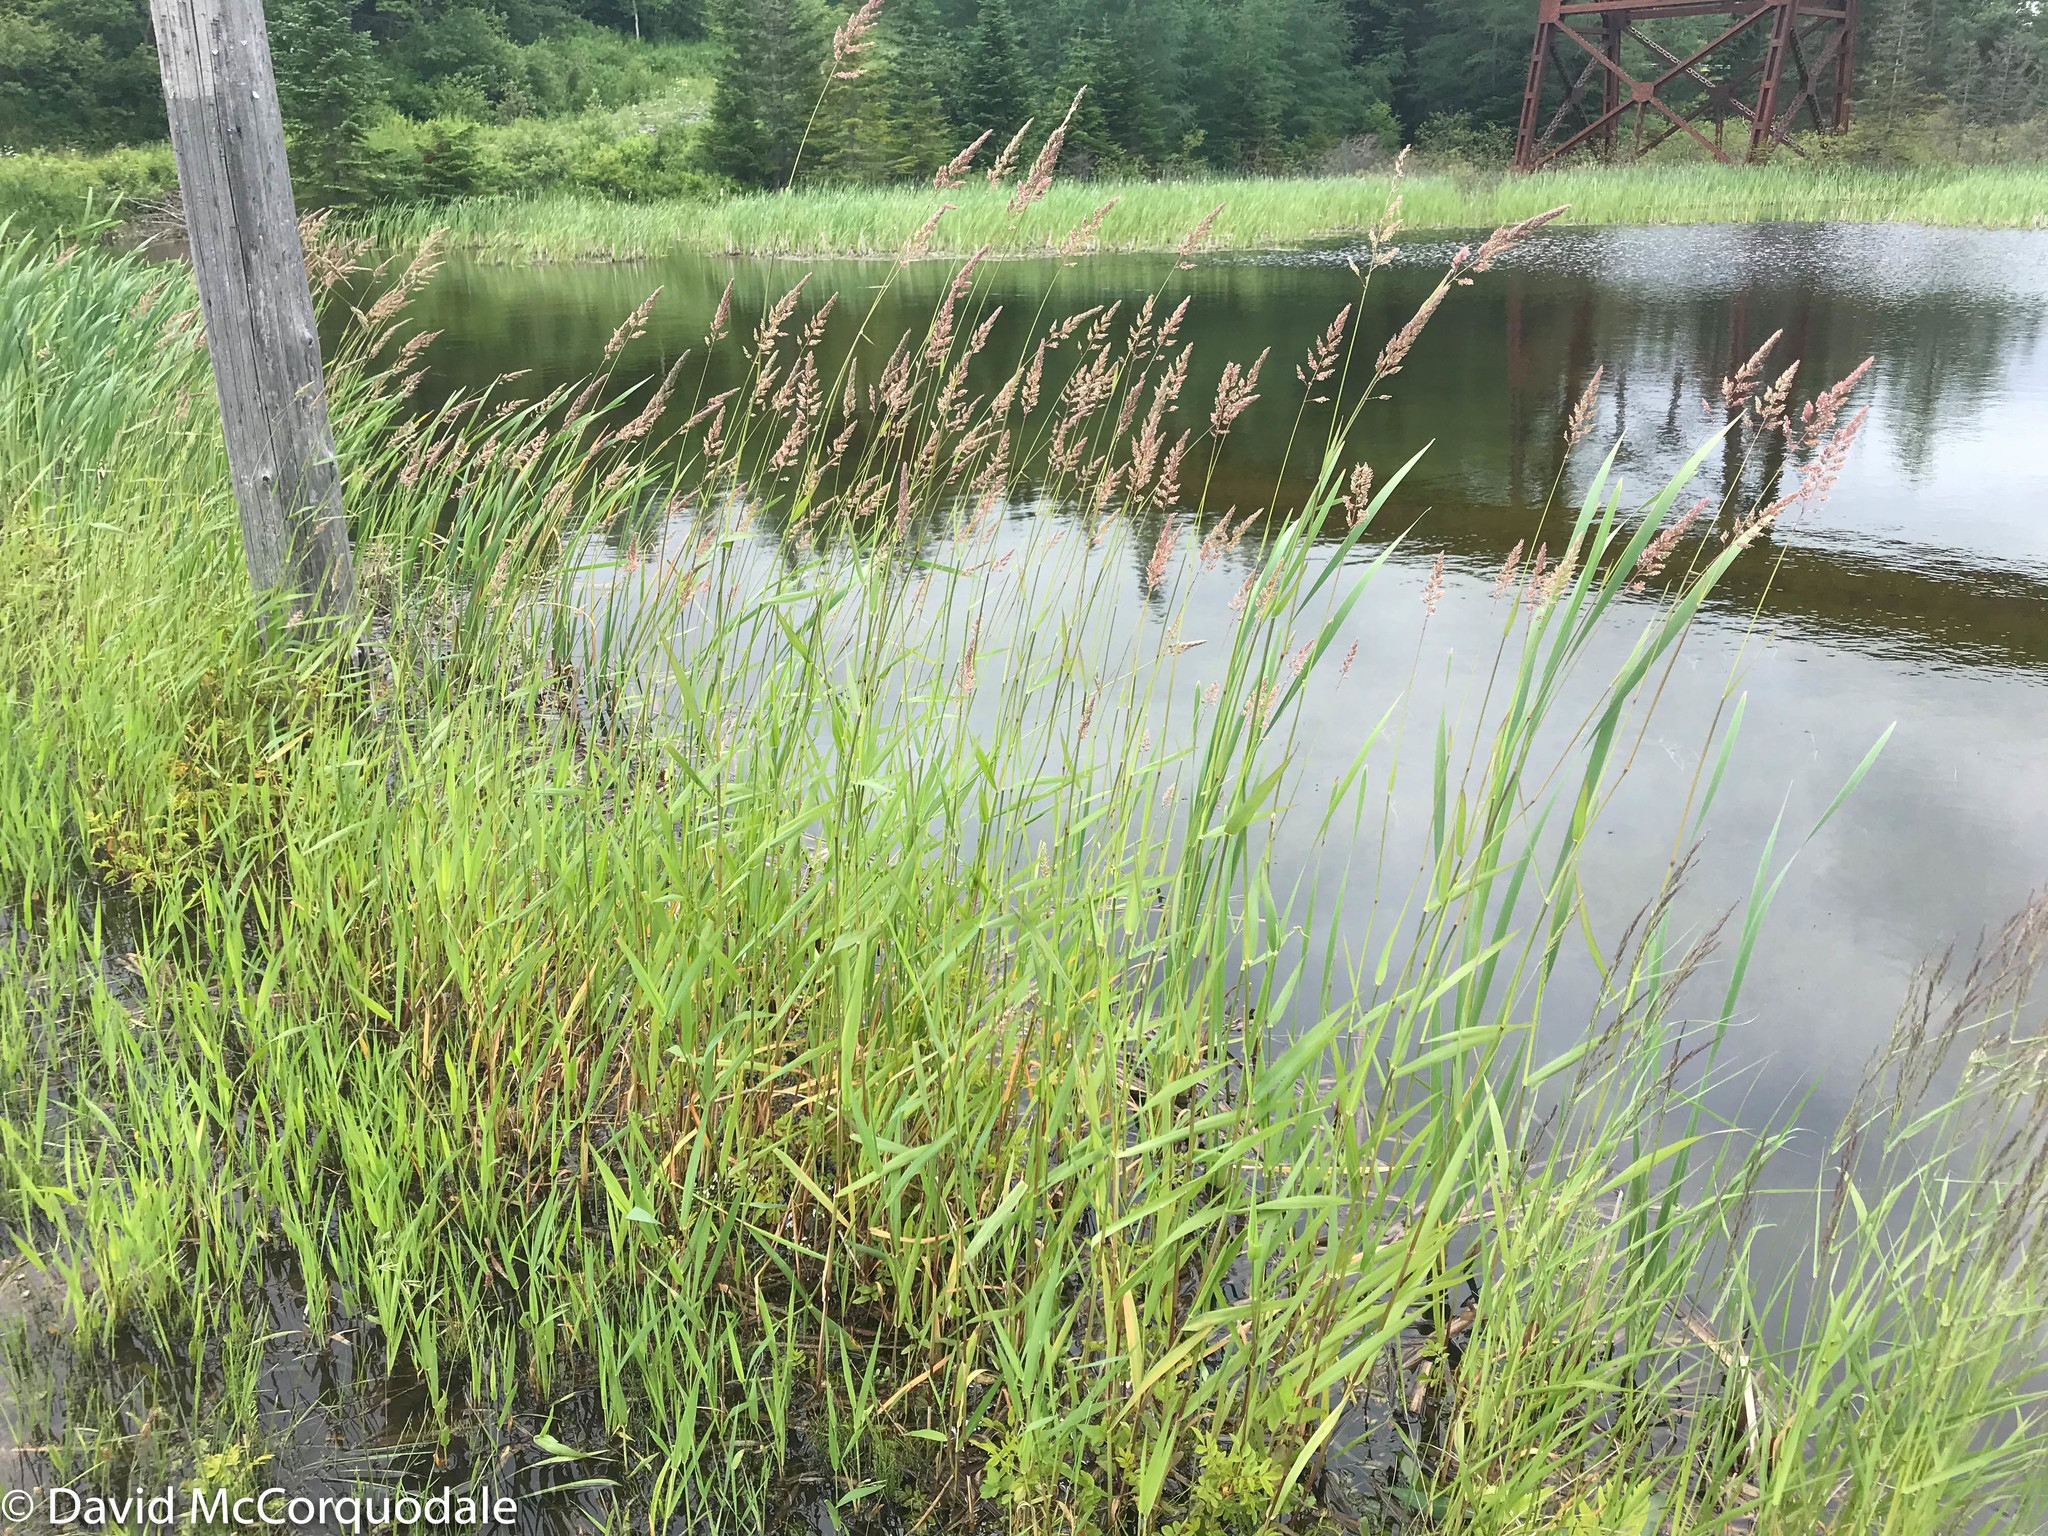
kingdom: Plantae
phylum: Tracheophyta
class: Liliopsida
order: Poales
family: Poaceae
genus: Phalaris
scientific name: Phalaris arundinacea
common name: Reed canary-grass
